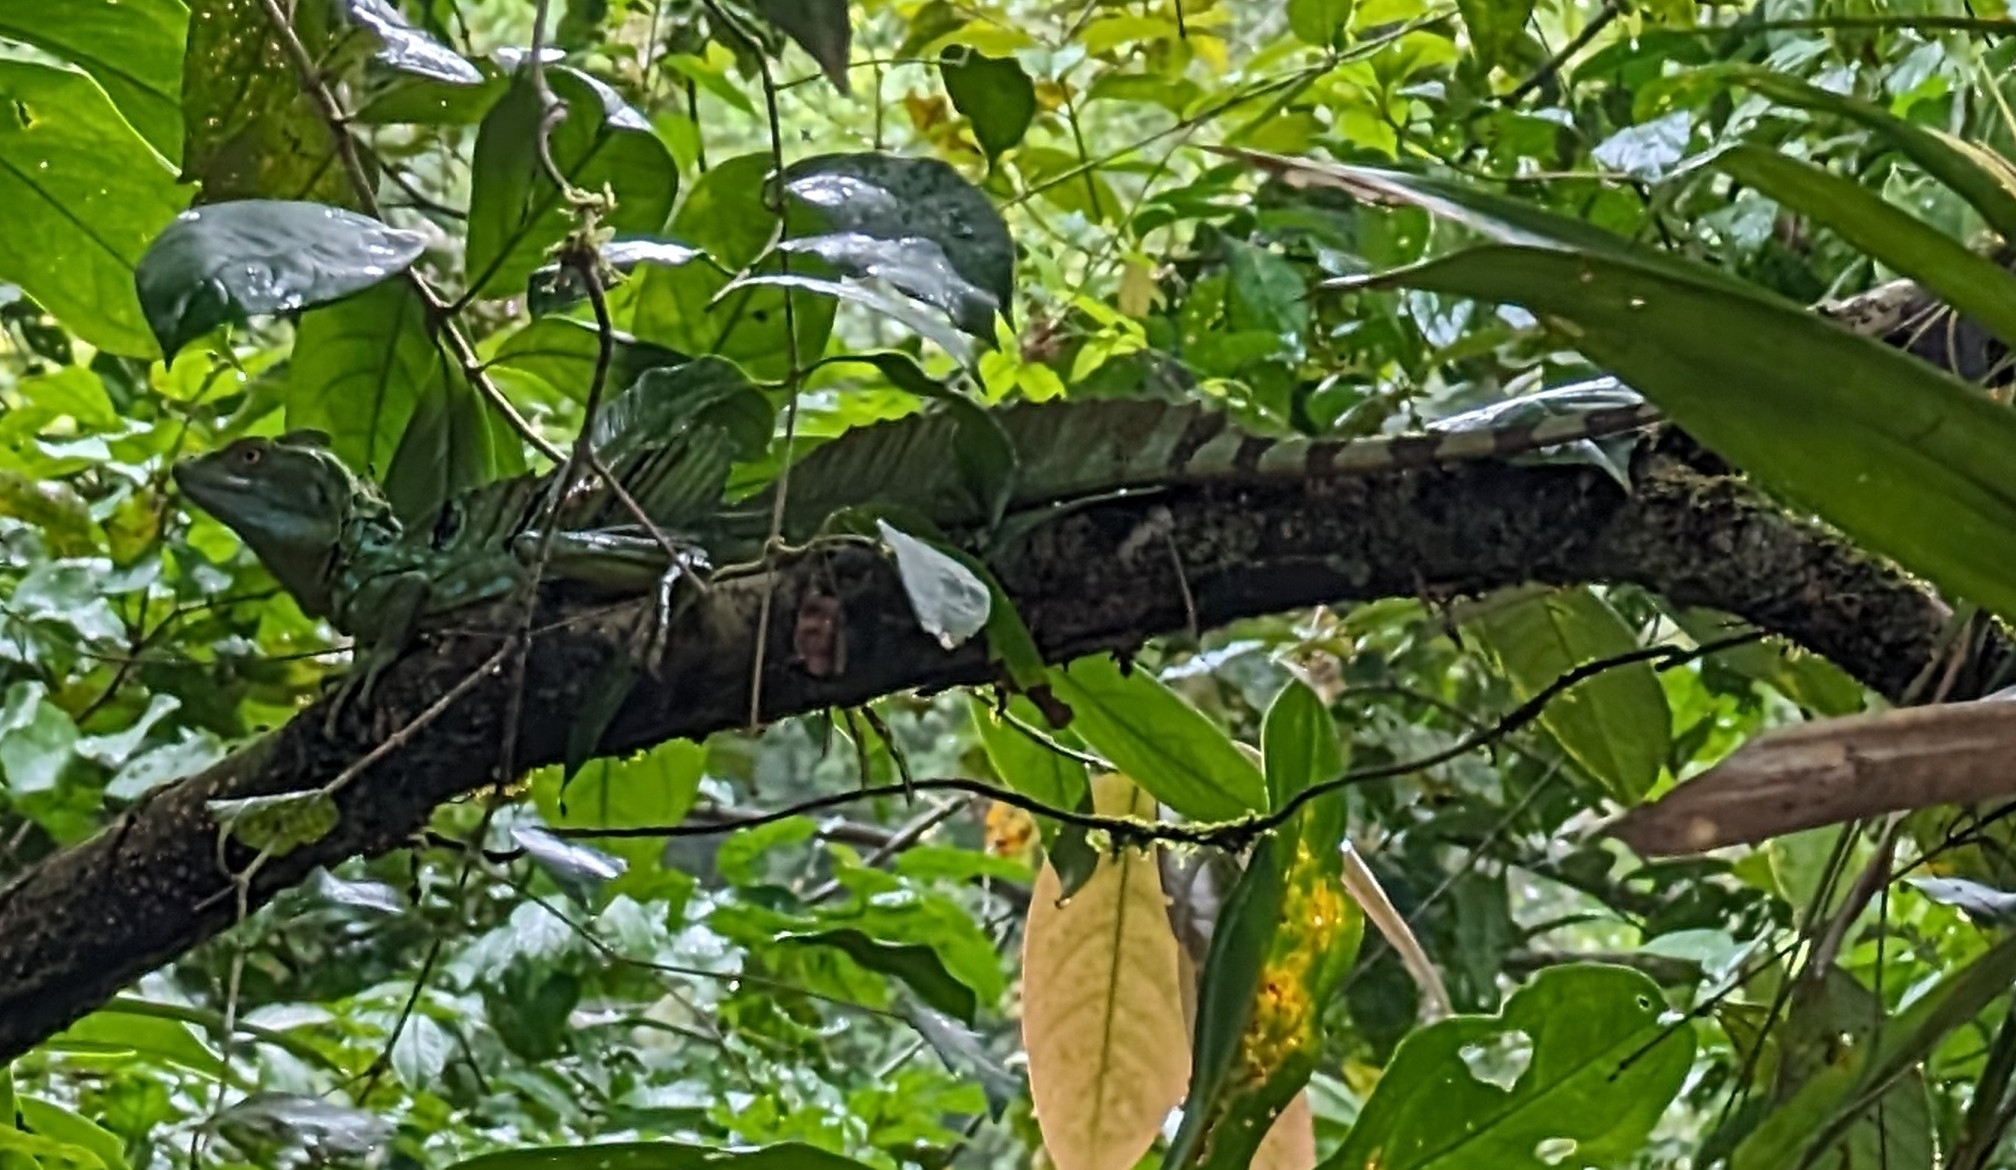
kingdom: Animalia
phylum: Chordata
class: Squamata
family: Corytophanidae
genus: Basiliscus
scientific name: Basiliscus plumifrons
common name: Green basilisk
